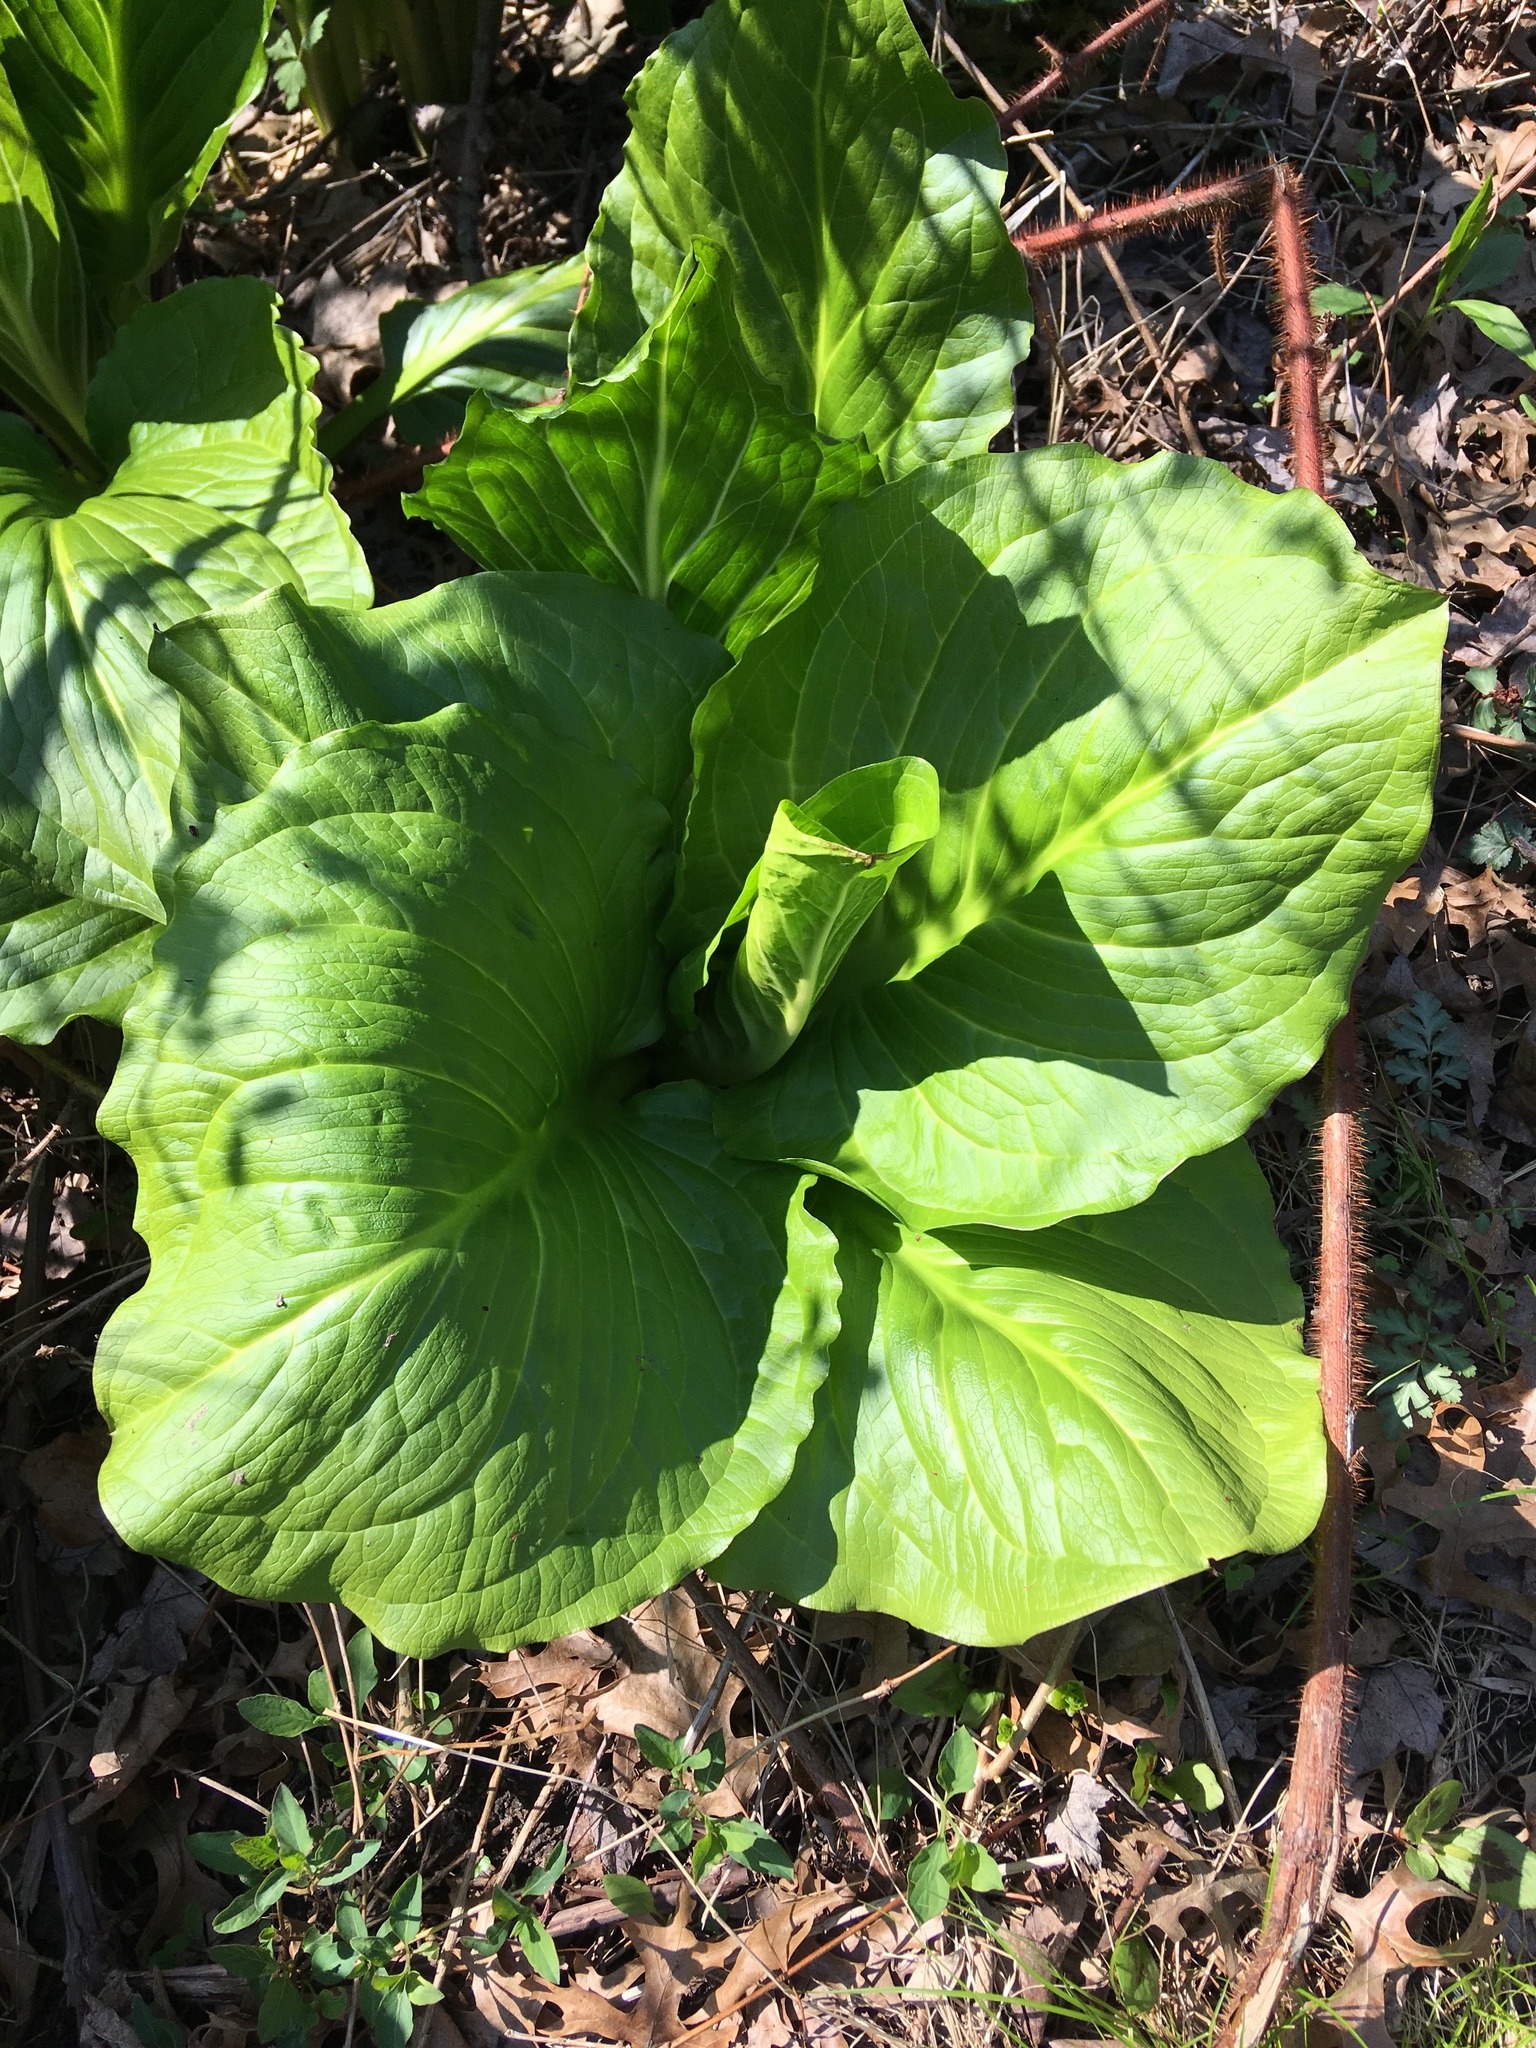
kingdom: Plantae
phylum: Tracheophyta
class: Liliopsida
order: Alismatales
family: Araceae
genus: Symplocarpus
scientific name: Symplocarpus foetidus
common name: Eastern skunk cabbage
